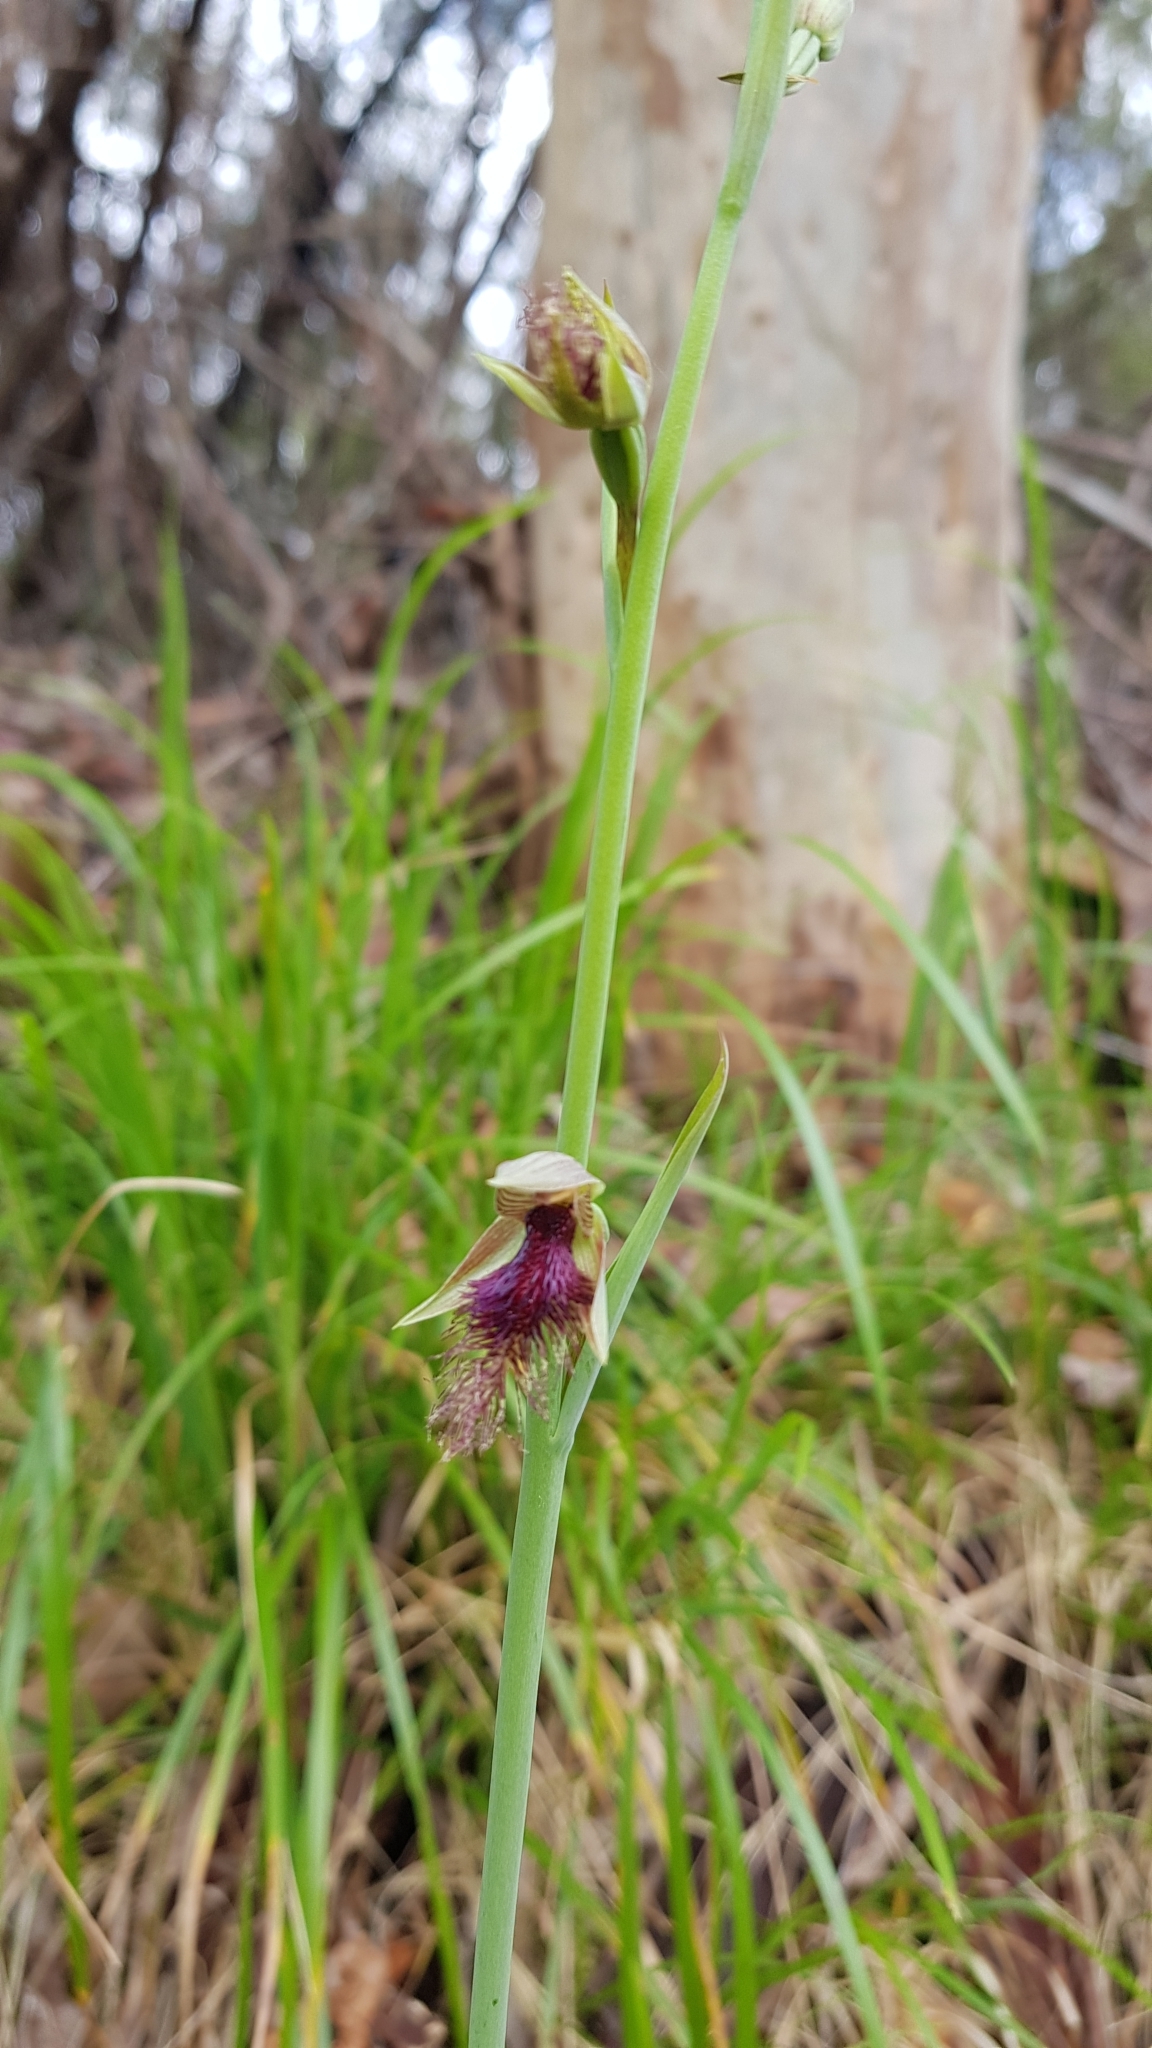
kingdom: Plantae
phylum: Tracheophyta
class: Liliopsida
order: Asparagales
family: Orchidaceae
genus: Calochilus
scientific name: Calochilus robertsonii
